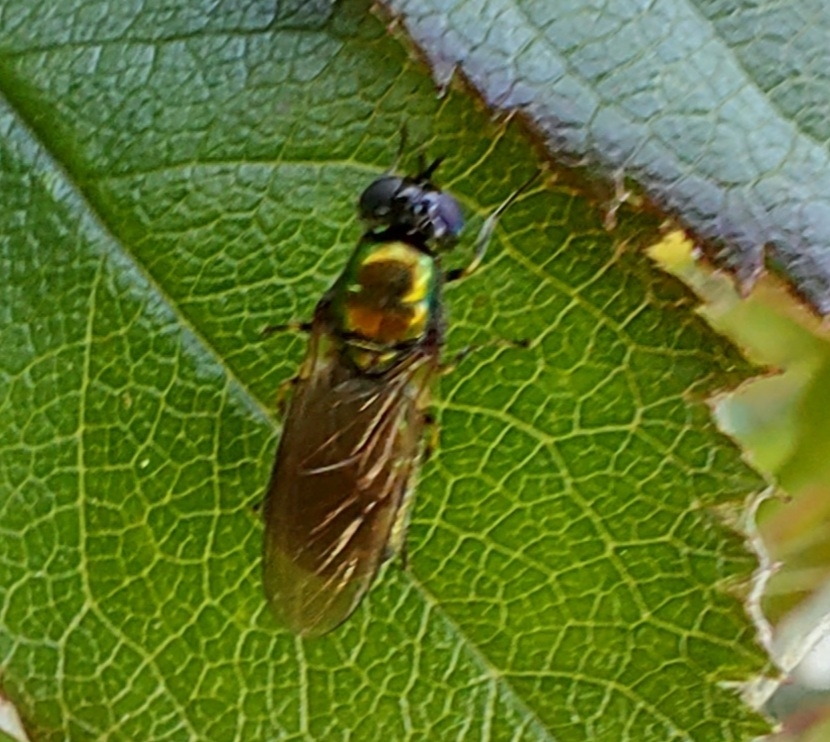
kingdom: Animalia
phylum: Arthropoda
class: Insecta
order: Diptera
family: Stratiomyidae
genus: Chloromyia
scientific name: Chloromyia formosa
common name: Soldier fly
